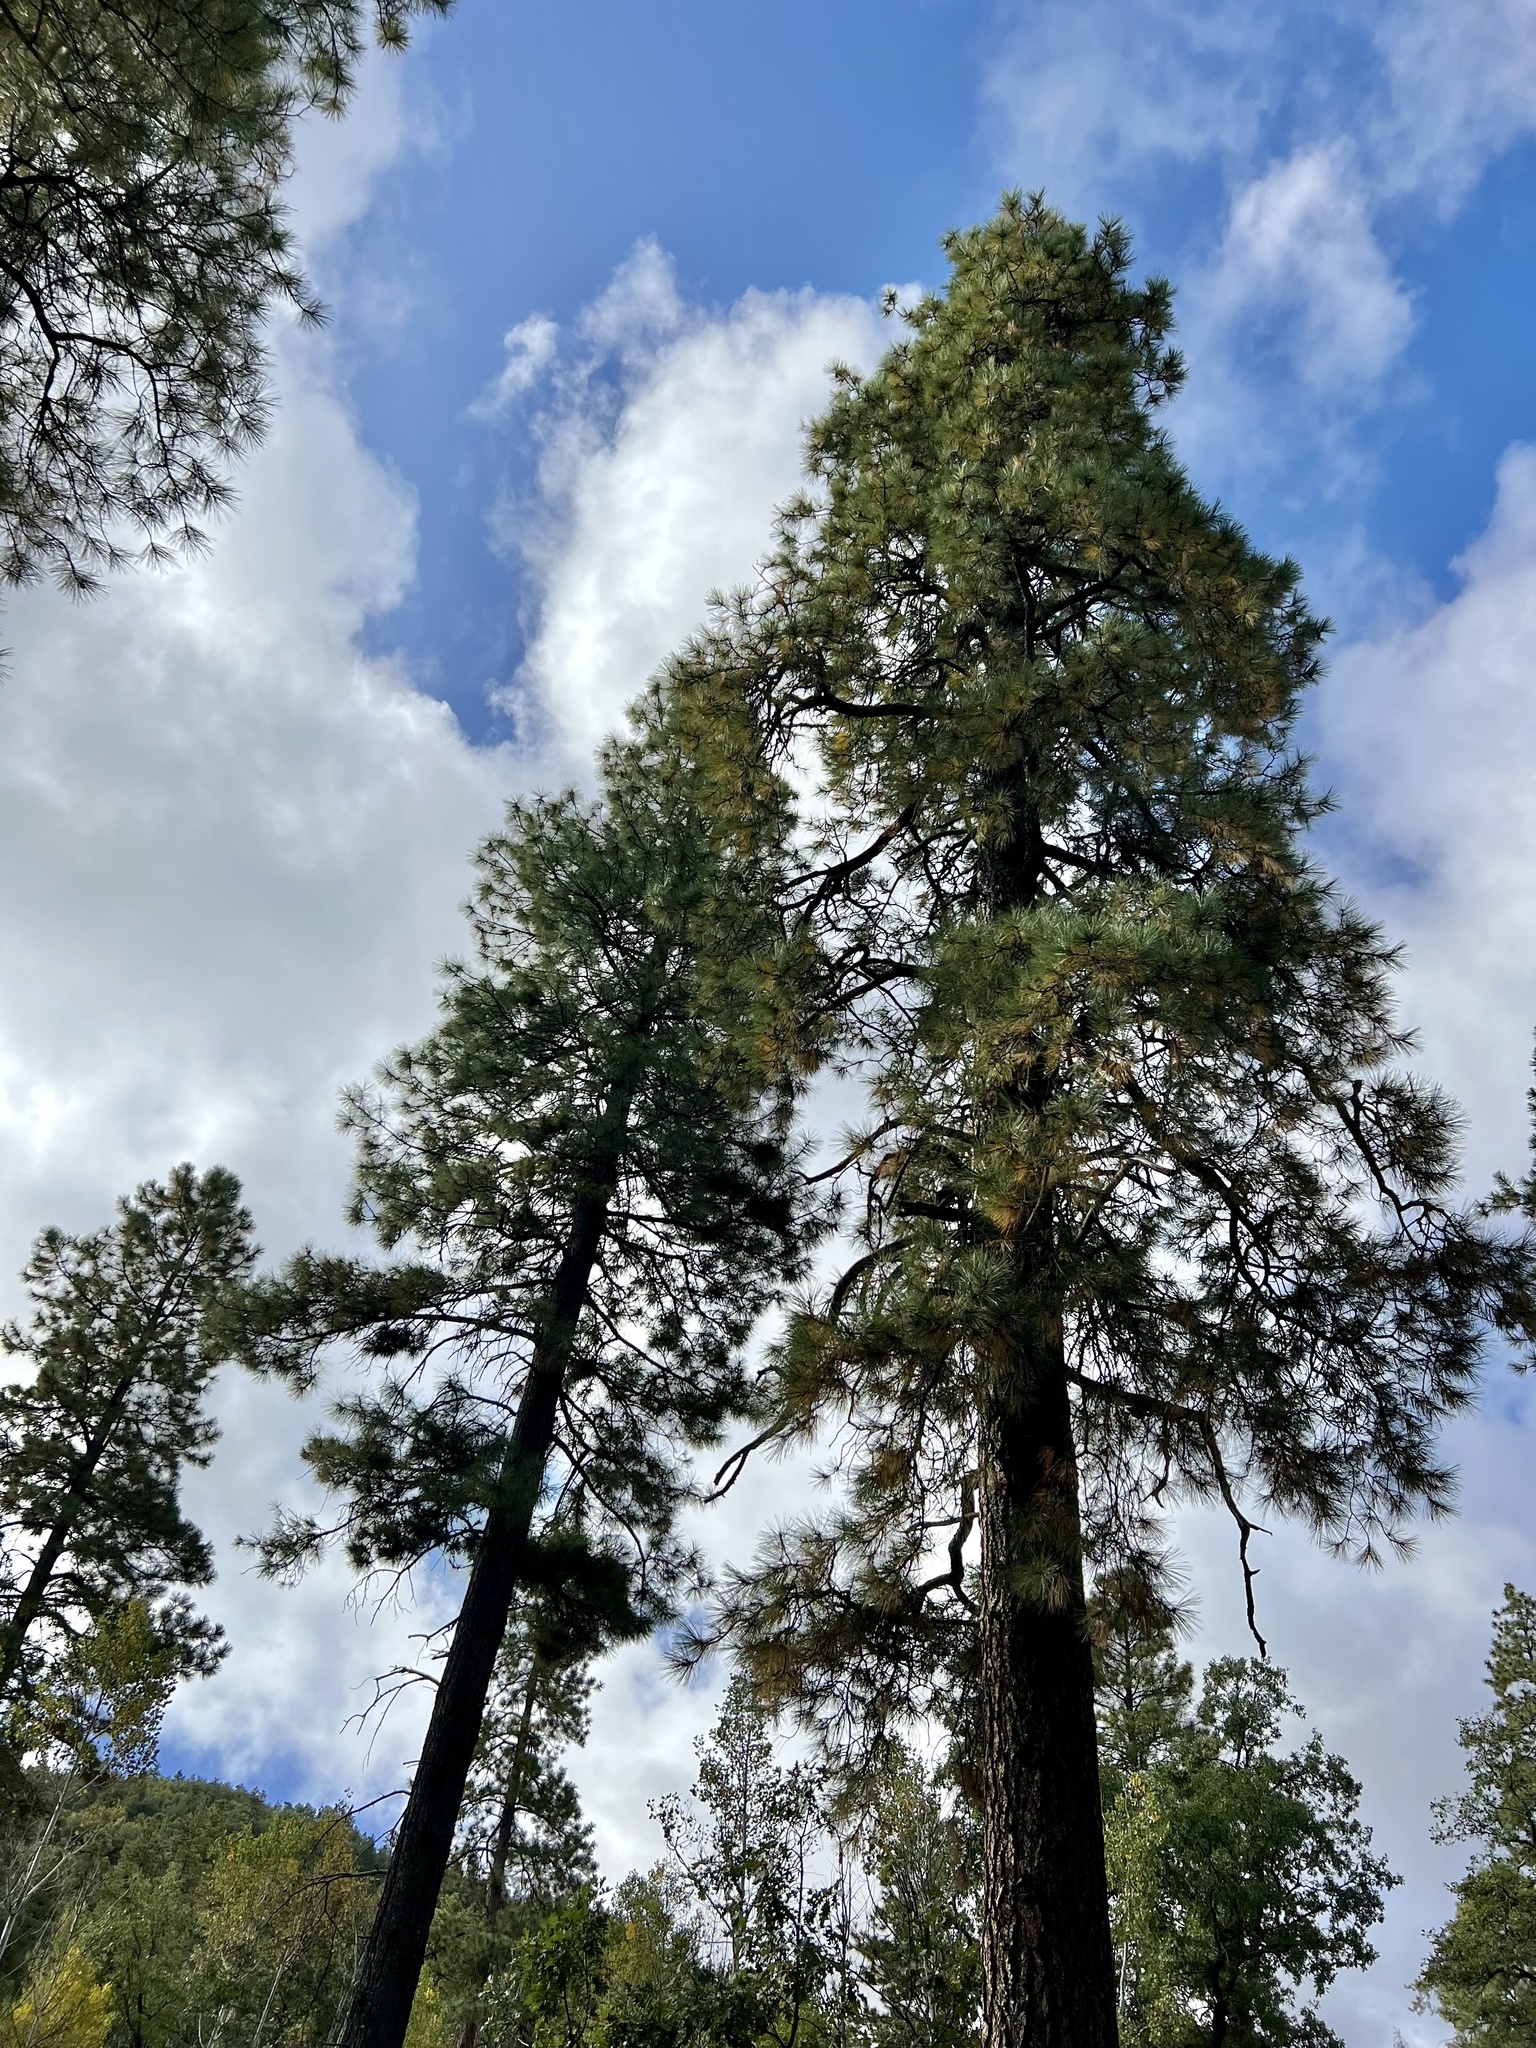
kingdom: Plantae
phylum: Tracheophyta
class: Pinopsida
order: Pinales
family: Pinaceae
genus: Pinus
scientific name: Pinus ponderosa
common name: Western yellow-pine
